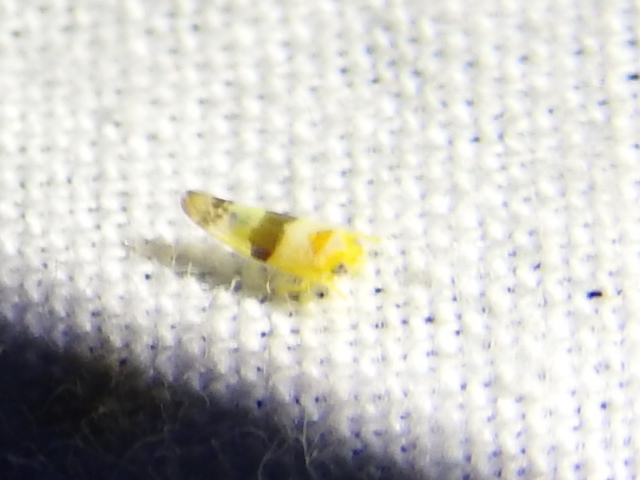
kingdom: Animalia
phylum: Arthropoda
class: Insecta
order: Hemiptera
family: Cicadellidae
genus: Empoa
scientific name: Empoa venusta
